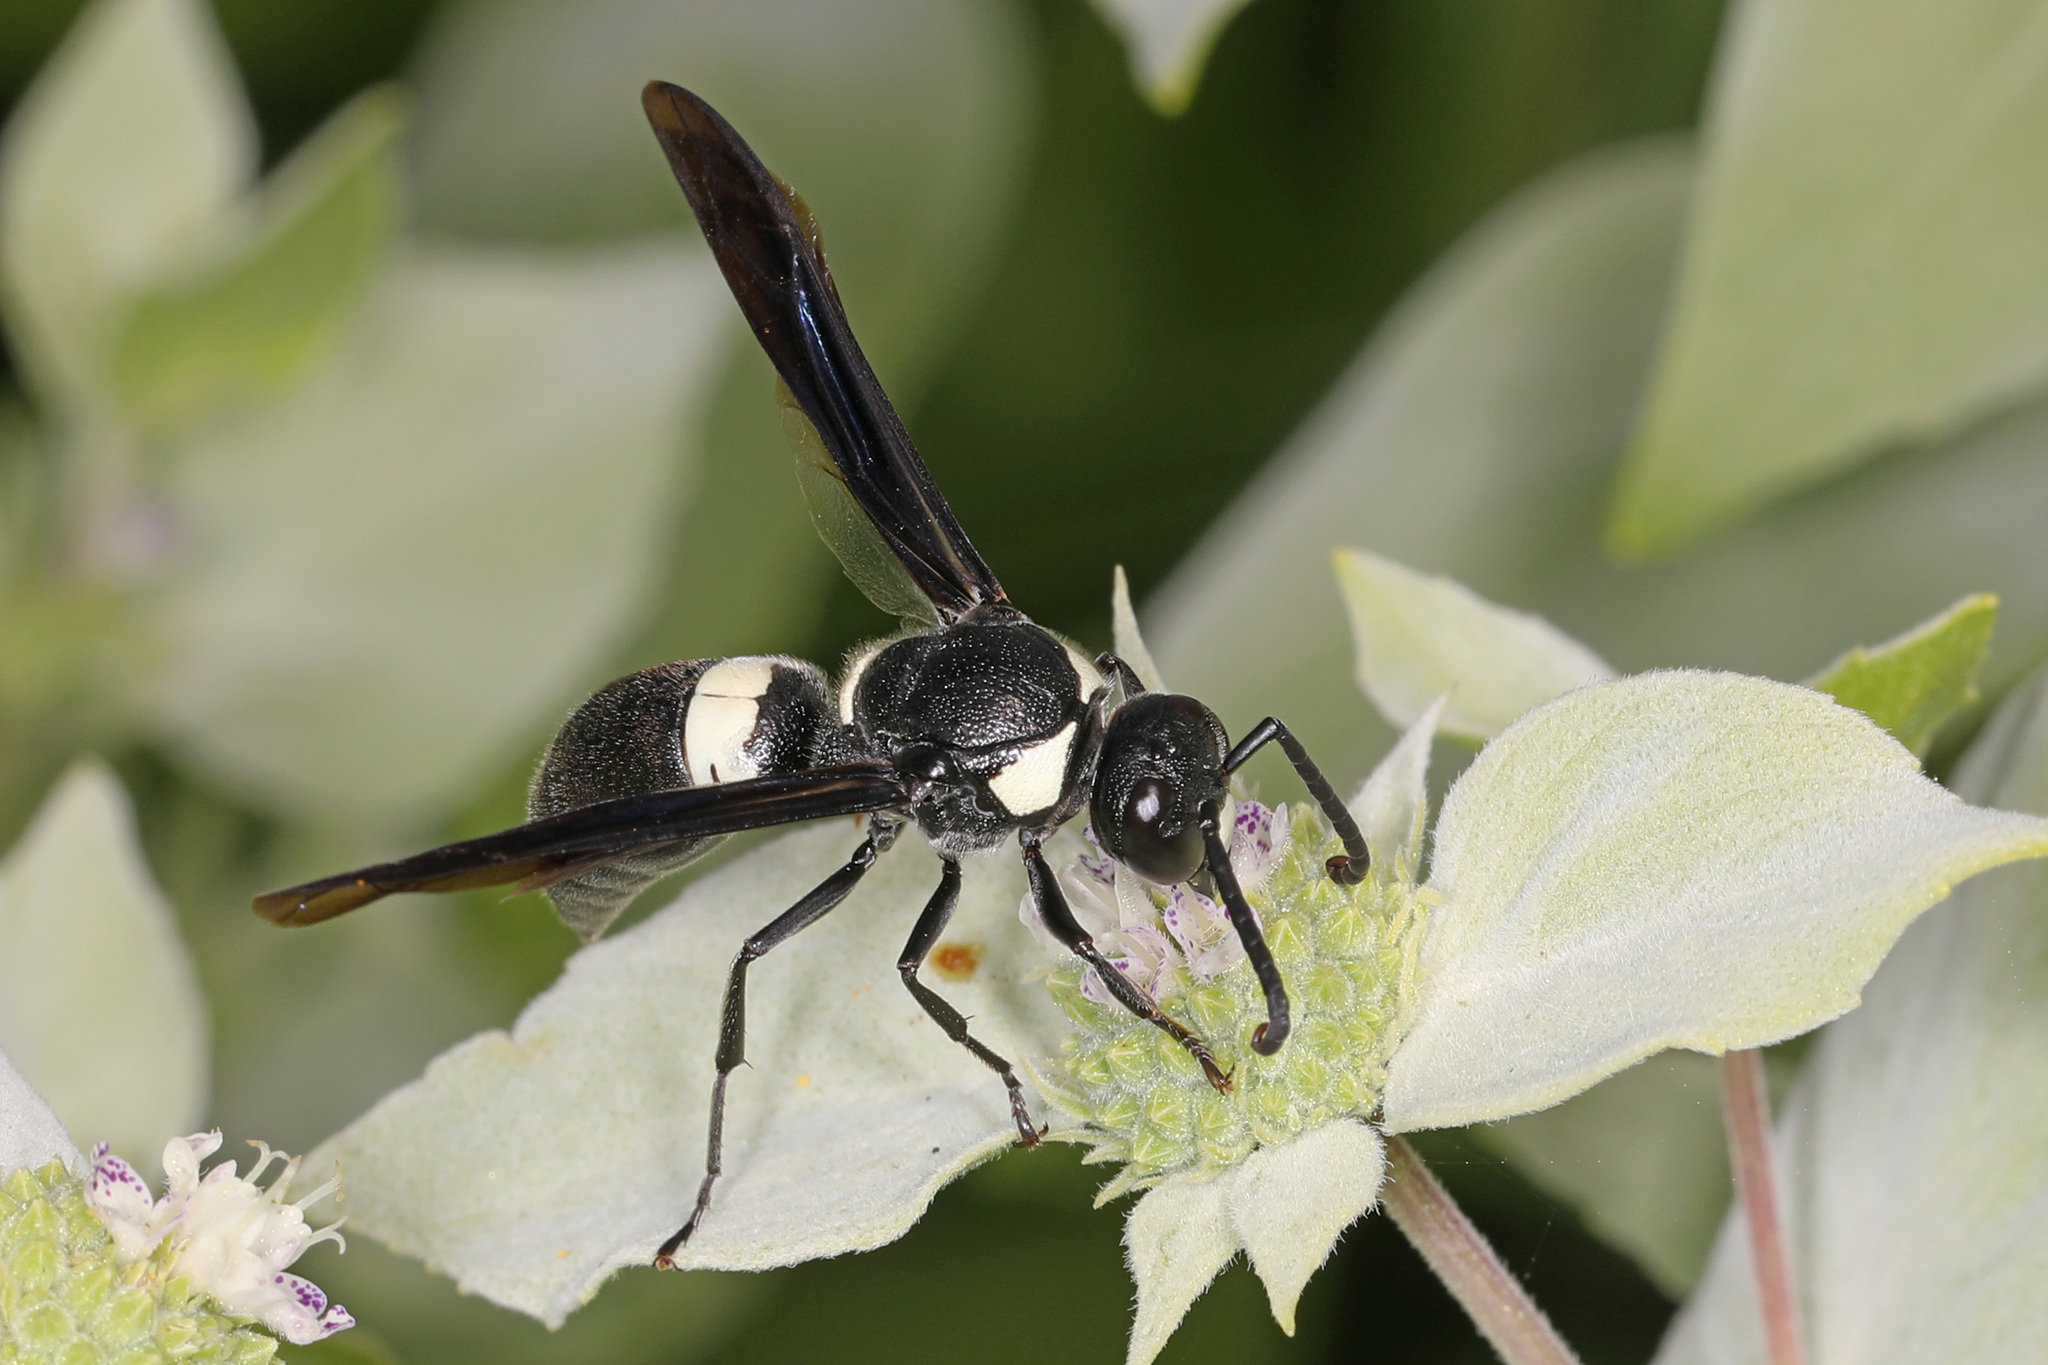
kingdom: Animalia
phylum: Arthropoda
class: Insecta
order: Hymenoptera
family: Eumenidae
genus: Monobia
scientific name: Monobia quadridens
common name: Four-toothed mason wasp
